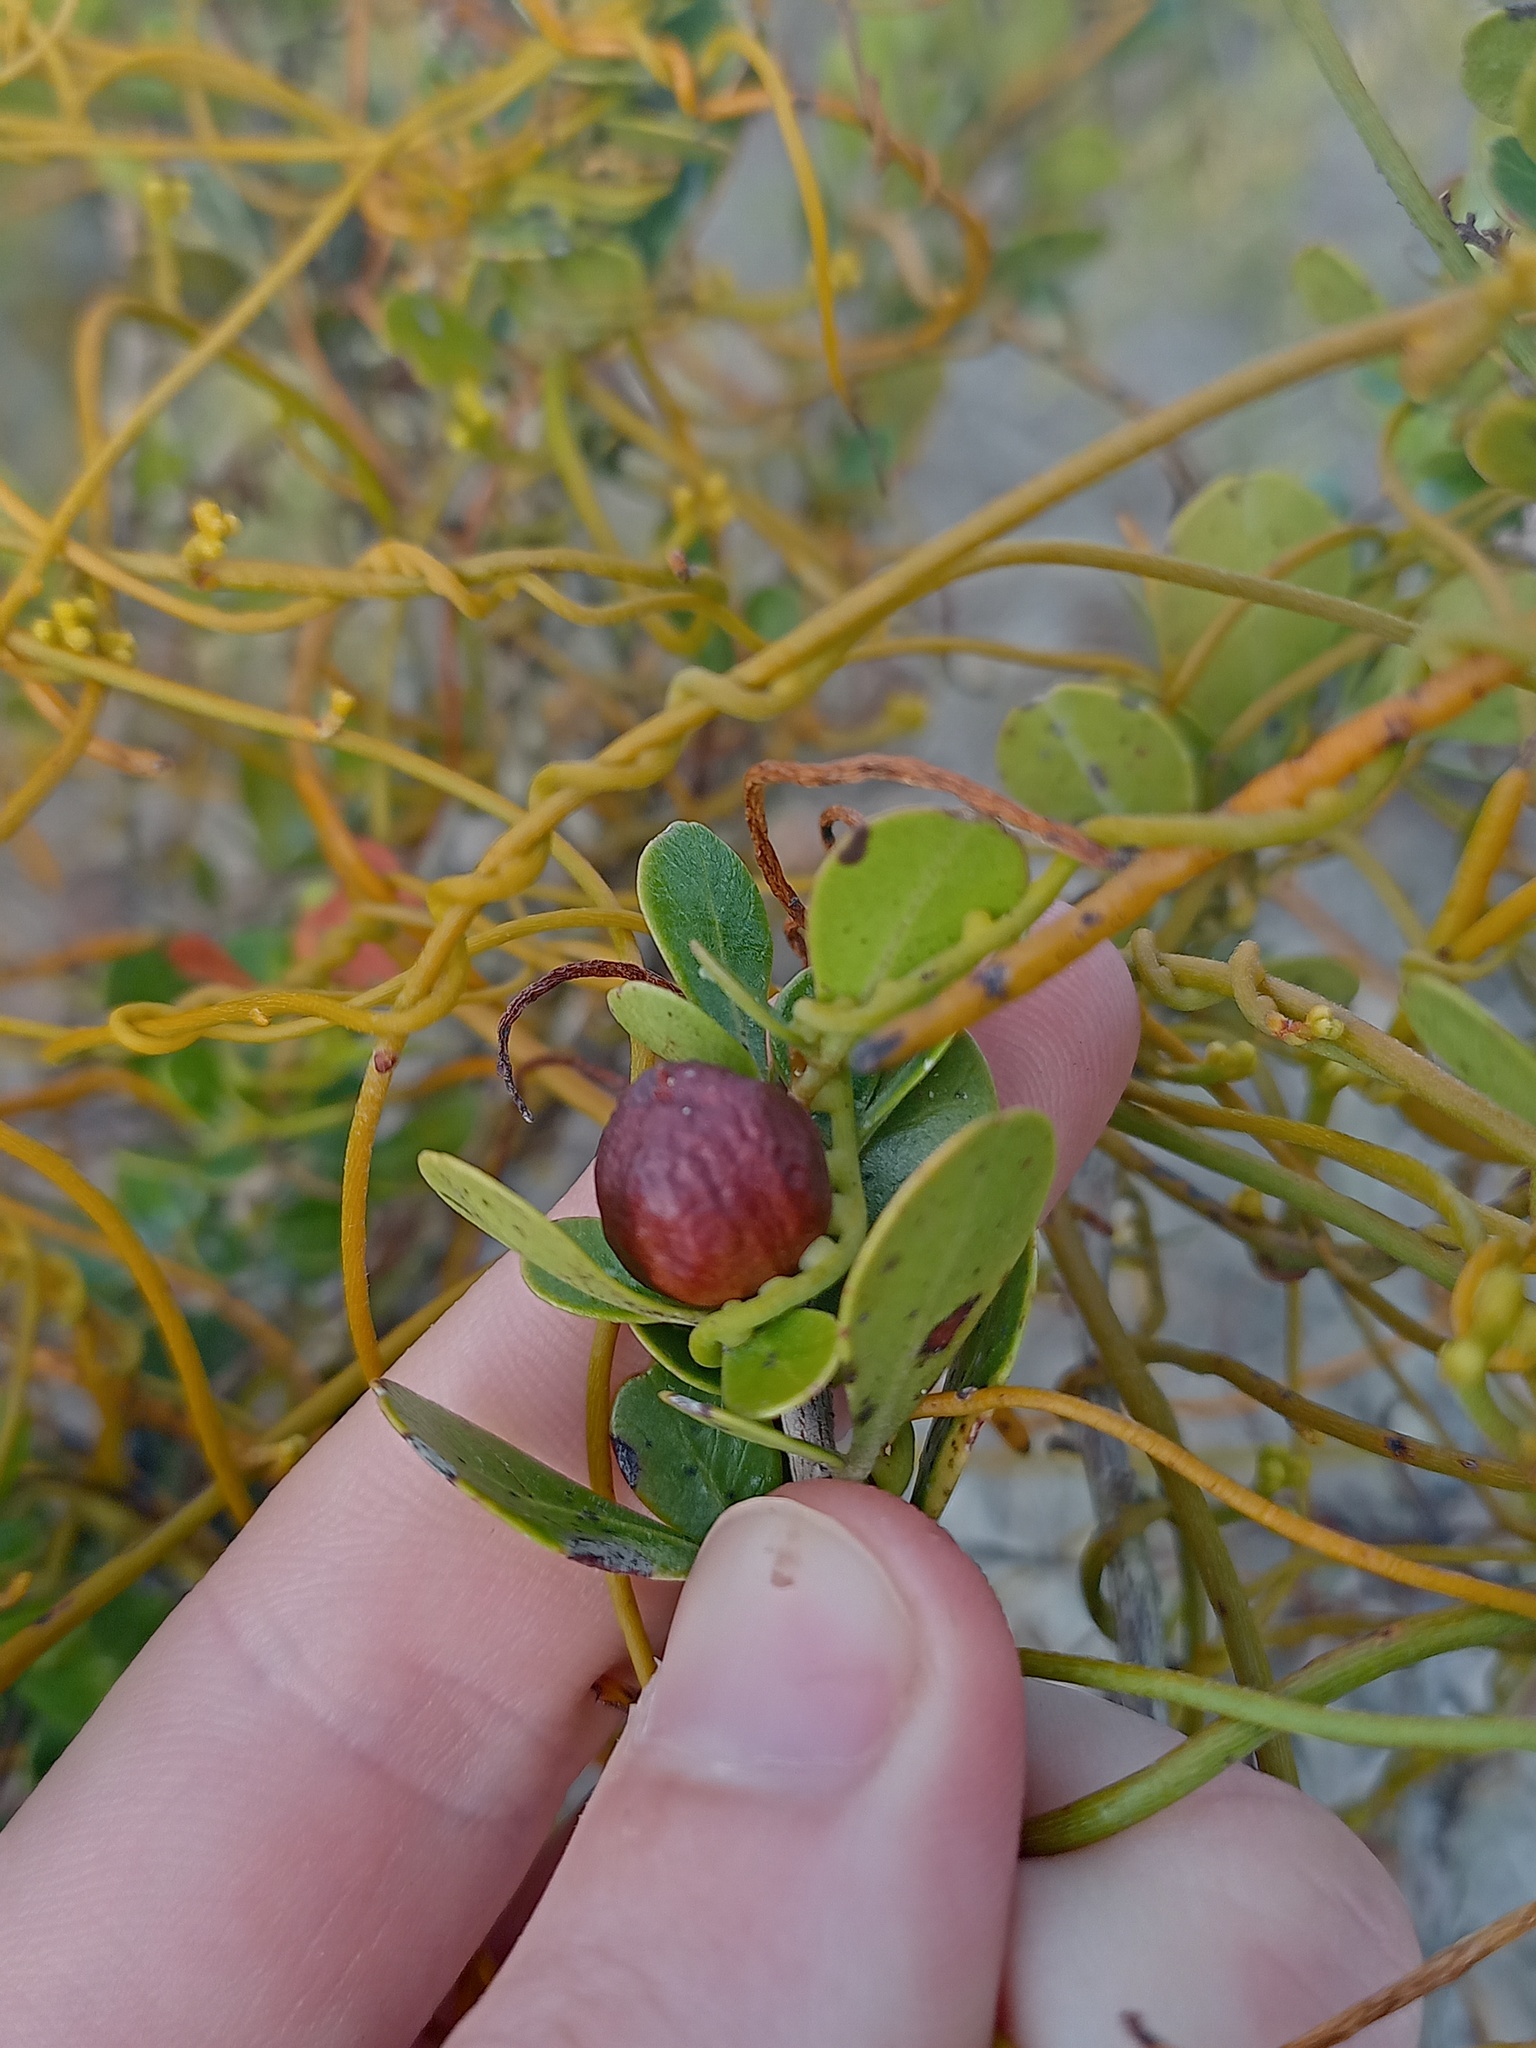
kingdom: Plantae
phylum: Tracheophyta
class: Magnoliopsida
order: Laurales
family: Lauraceae
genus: Cassytha
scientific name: Cassytha ciliolata
